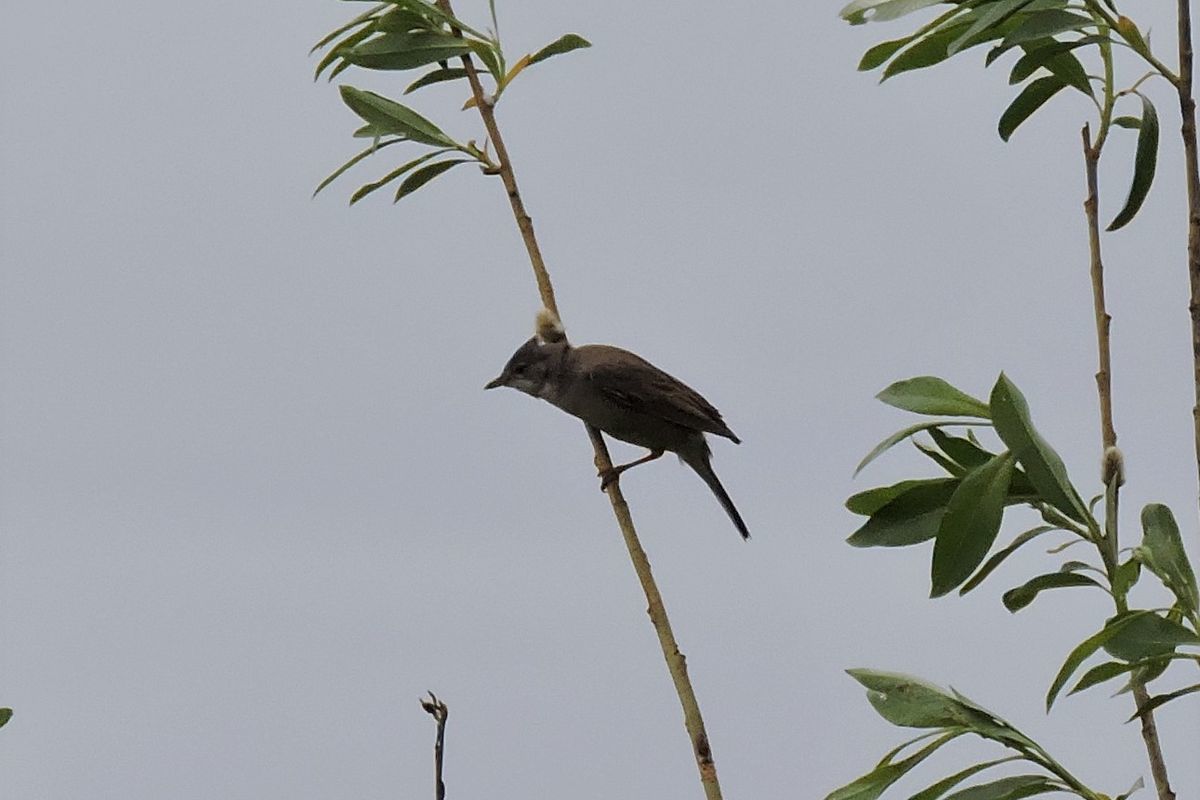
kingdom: Animalia
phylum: Chordata
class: Aves
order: Passeriformes
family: Sylviidae
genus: Sylvia
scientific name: Sylvia communis
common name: Common whitethroat
